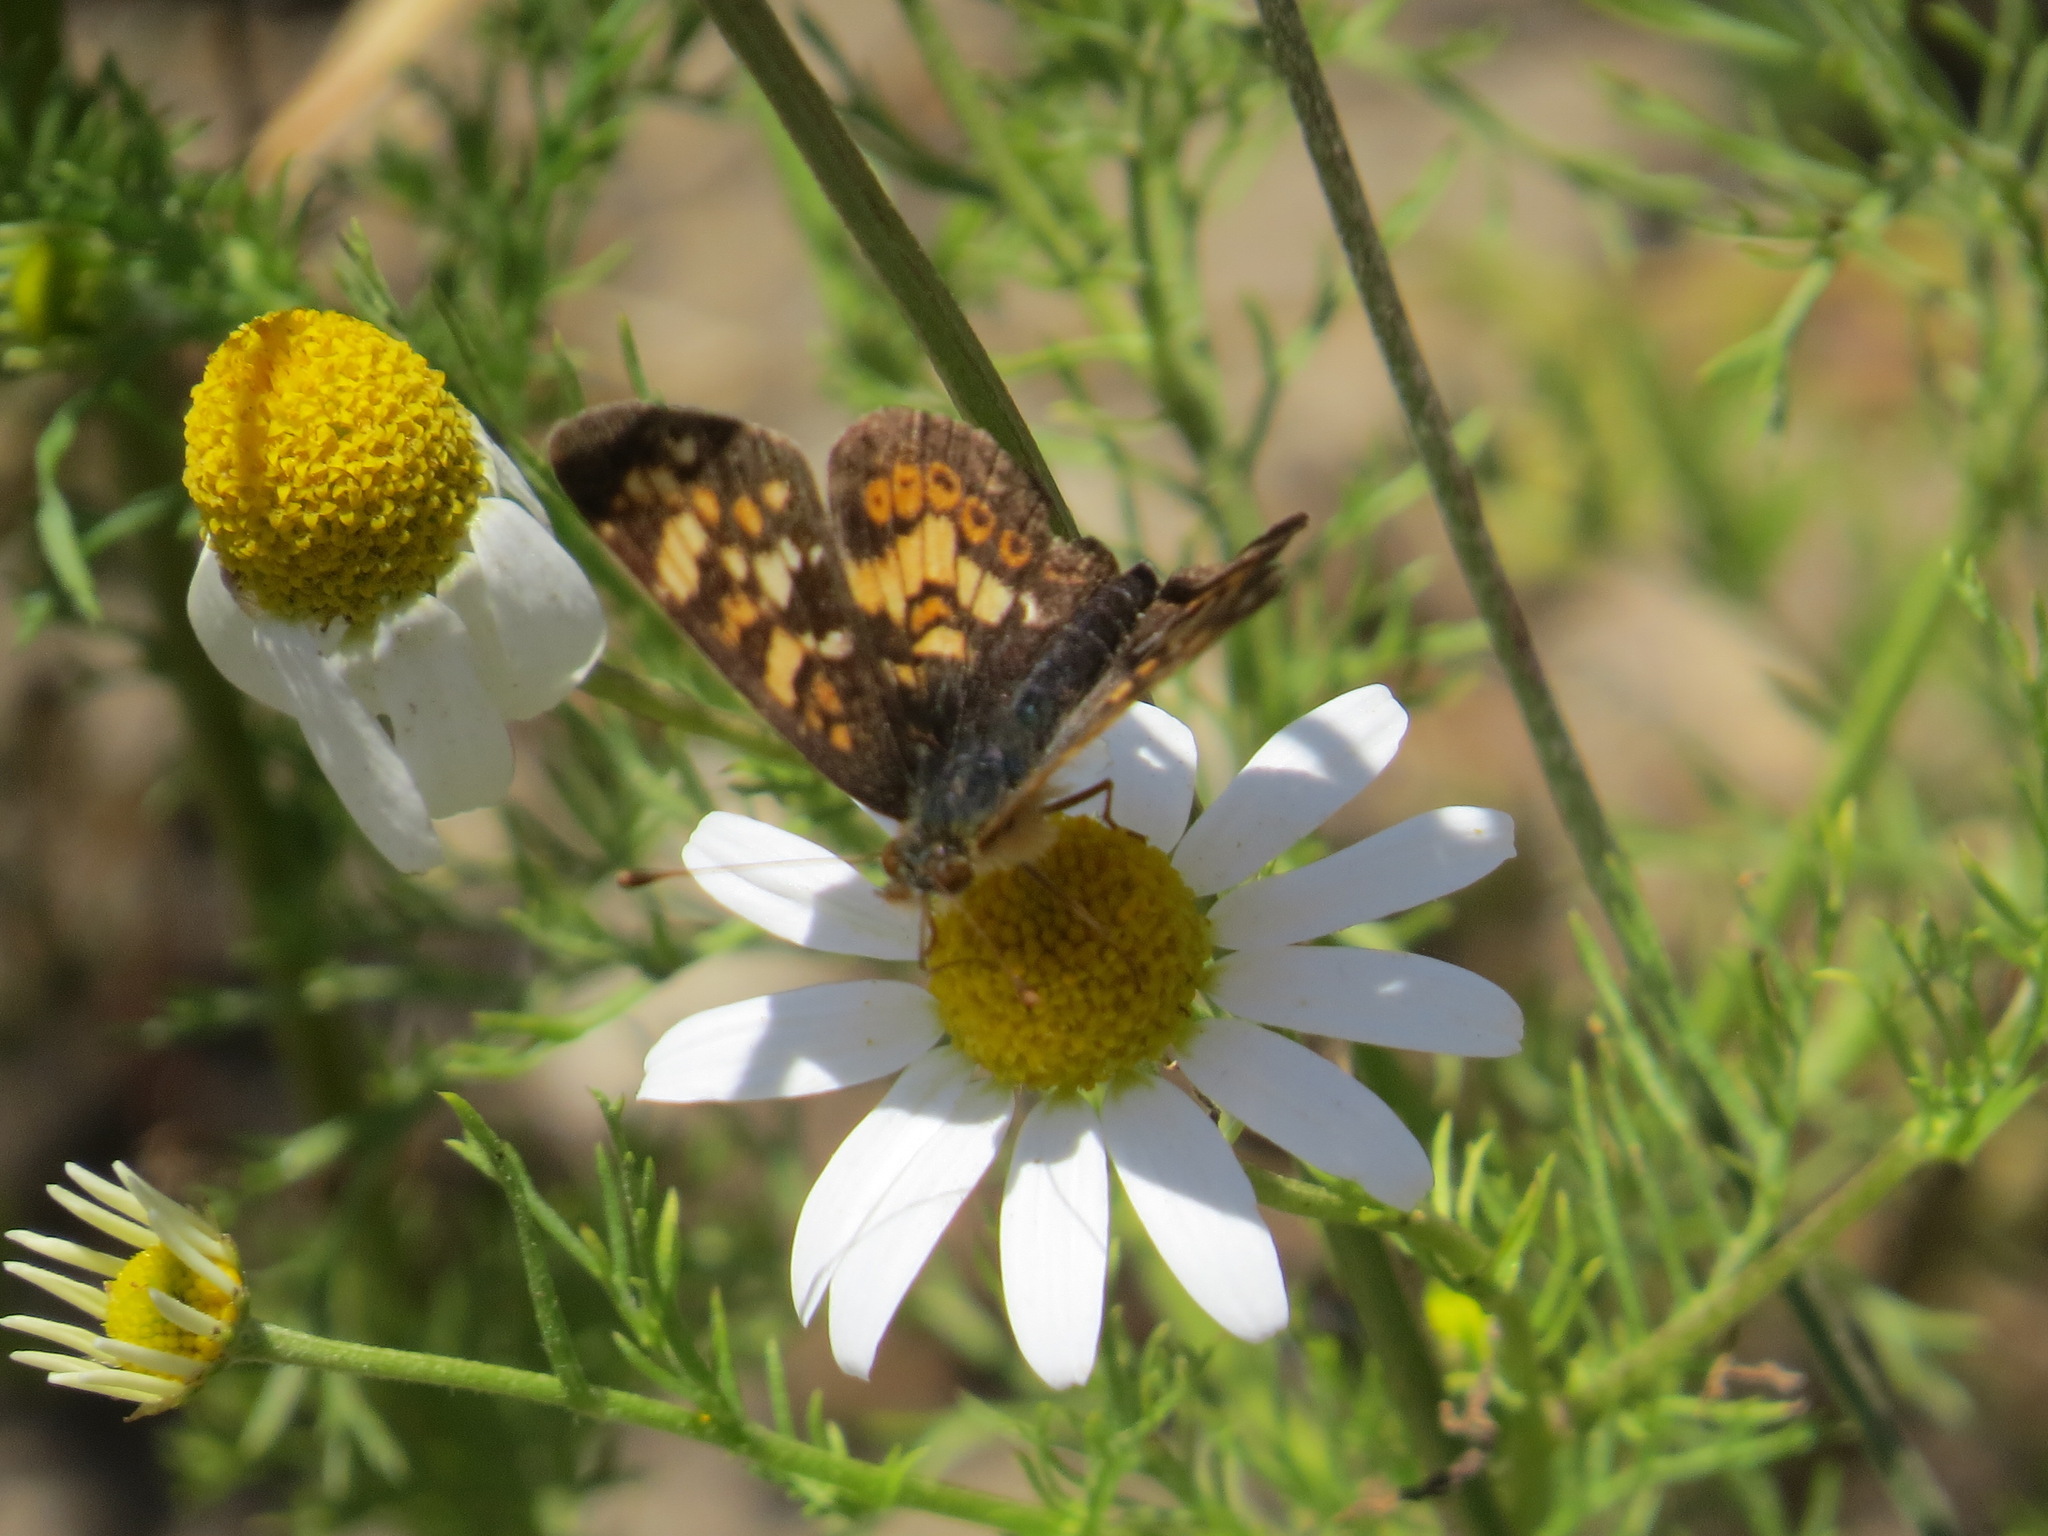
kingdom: Animalia
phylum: Arthropoda
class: Insecta
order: Lepidoptera
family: Nymphalidae
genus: Phyciodes
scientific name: Phyciodes tharos
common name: Pearl crescent
